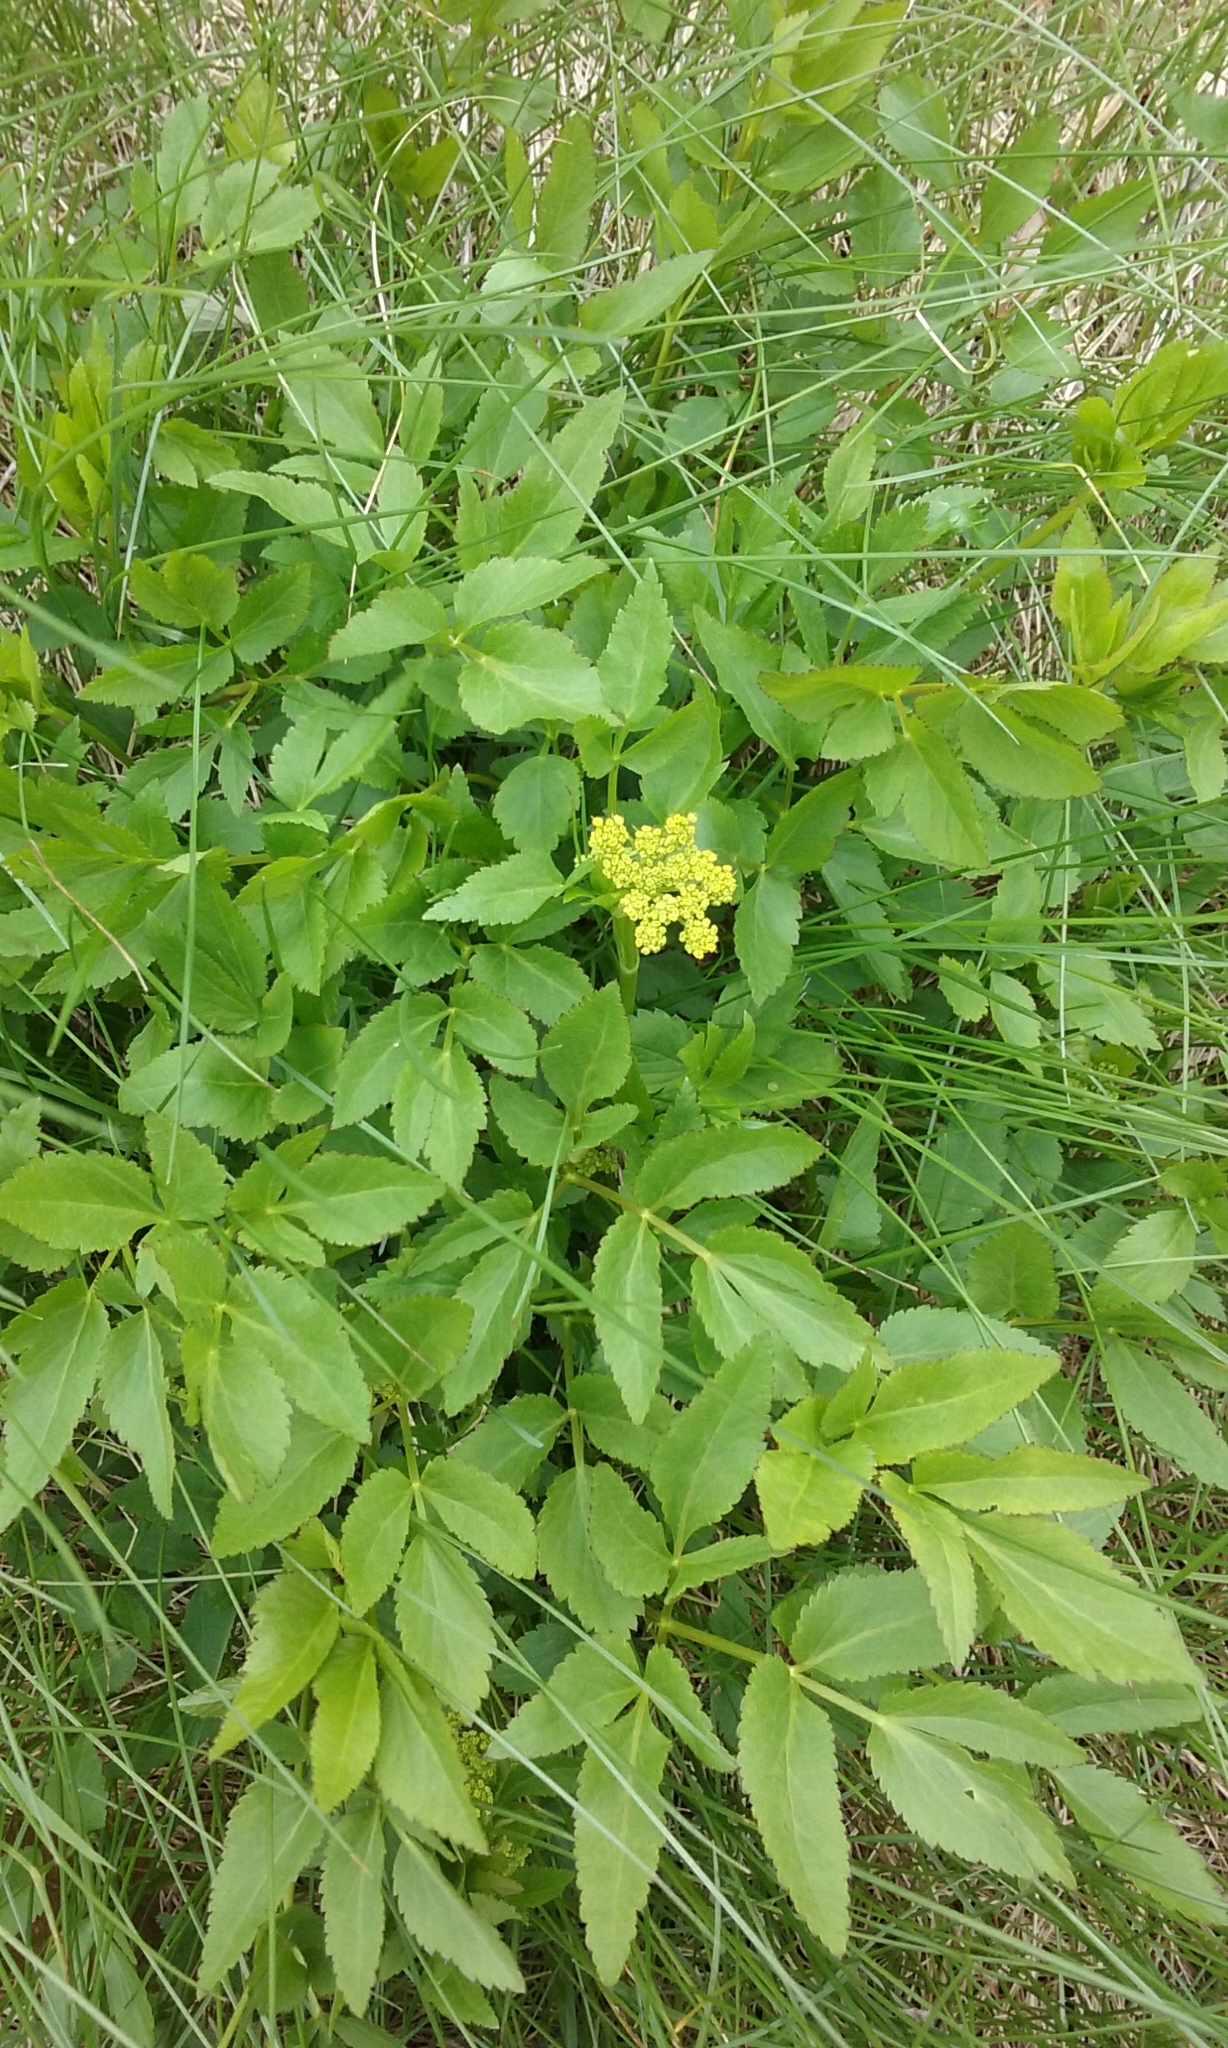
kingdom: Plantae
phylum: Tracheophyta
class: Magnoliopsida
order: Apiales
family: Apiaceae
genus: Zizia
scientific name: Zizia aurea
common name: Golden alexanders
